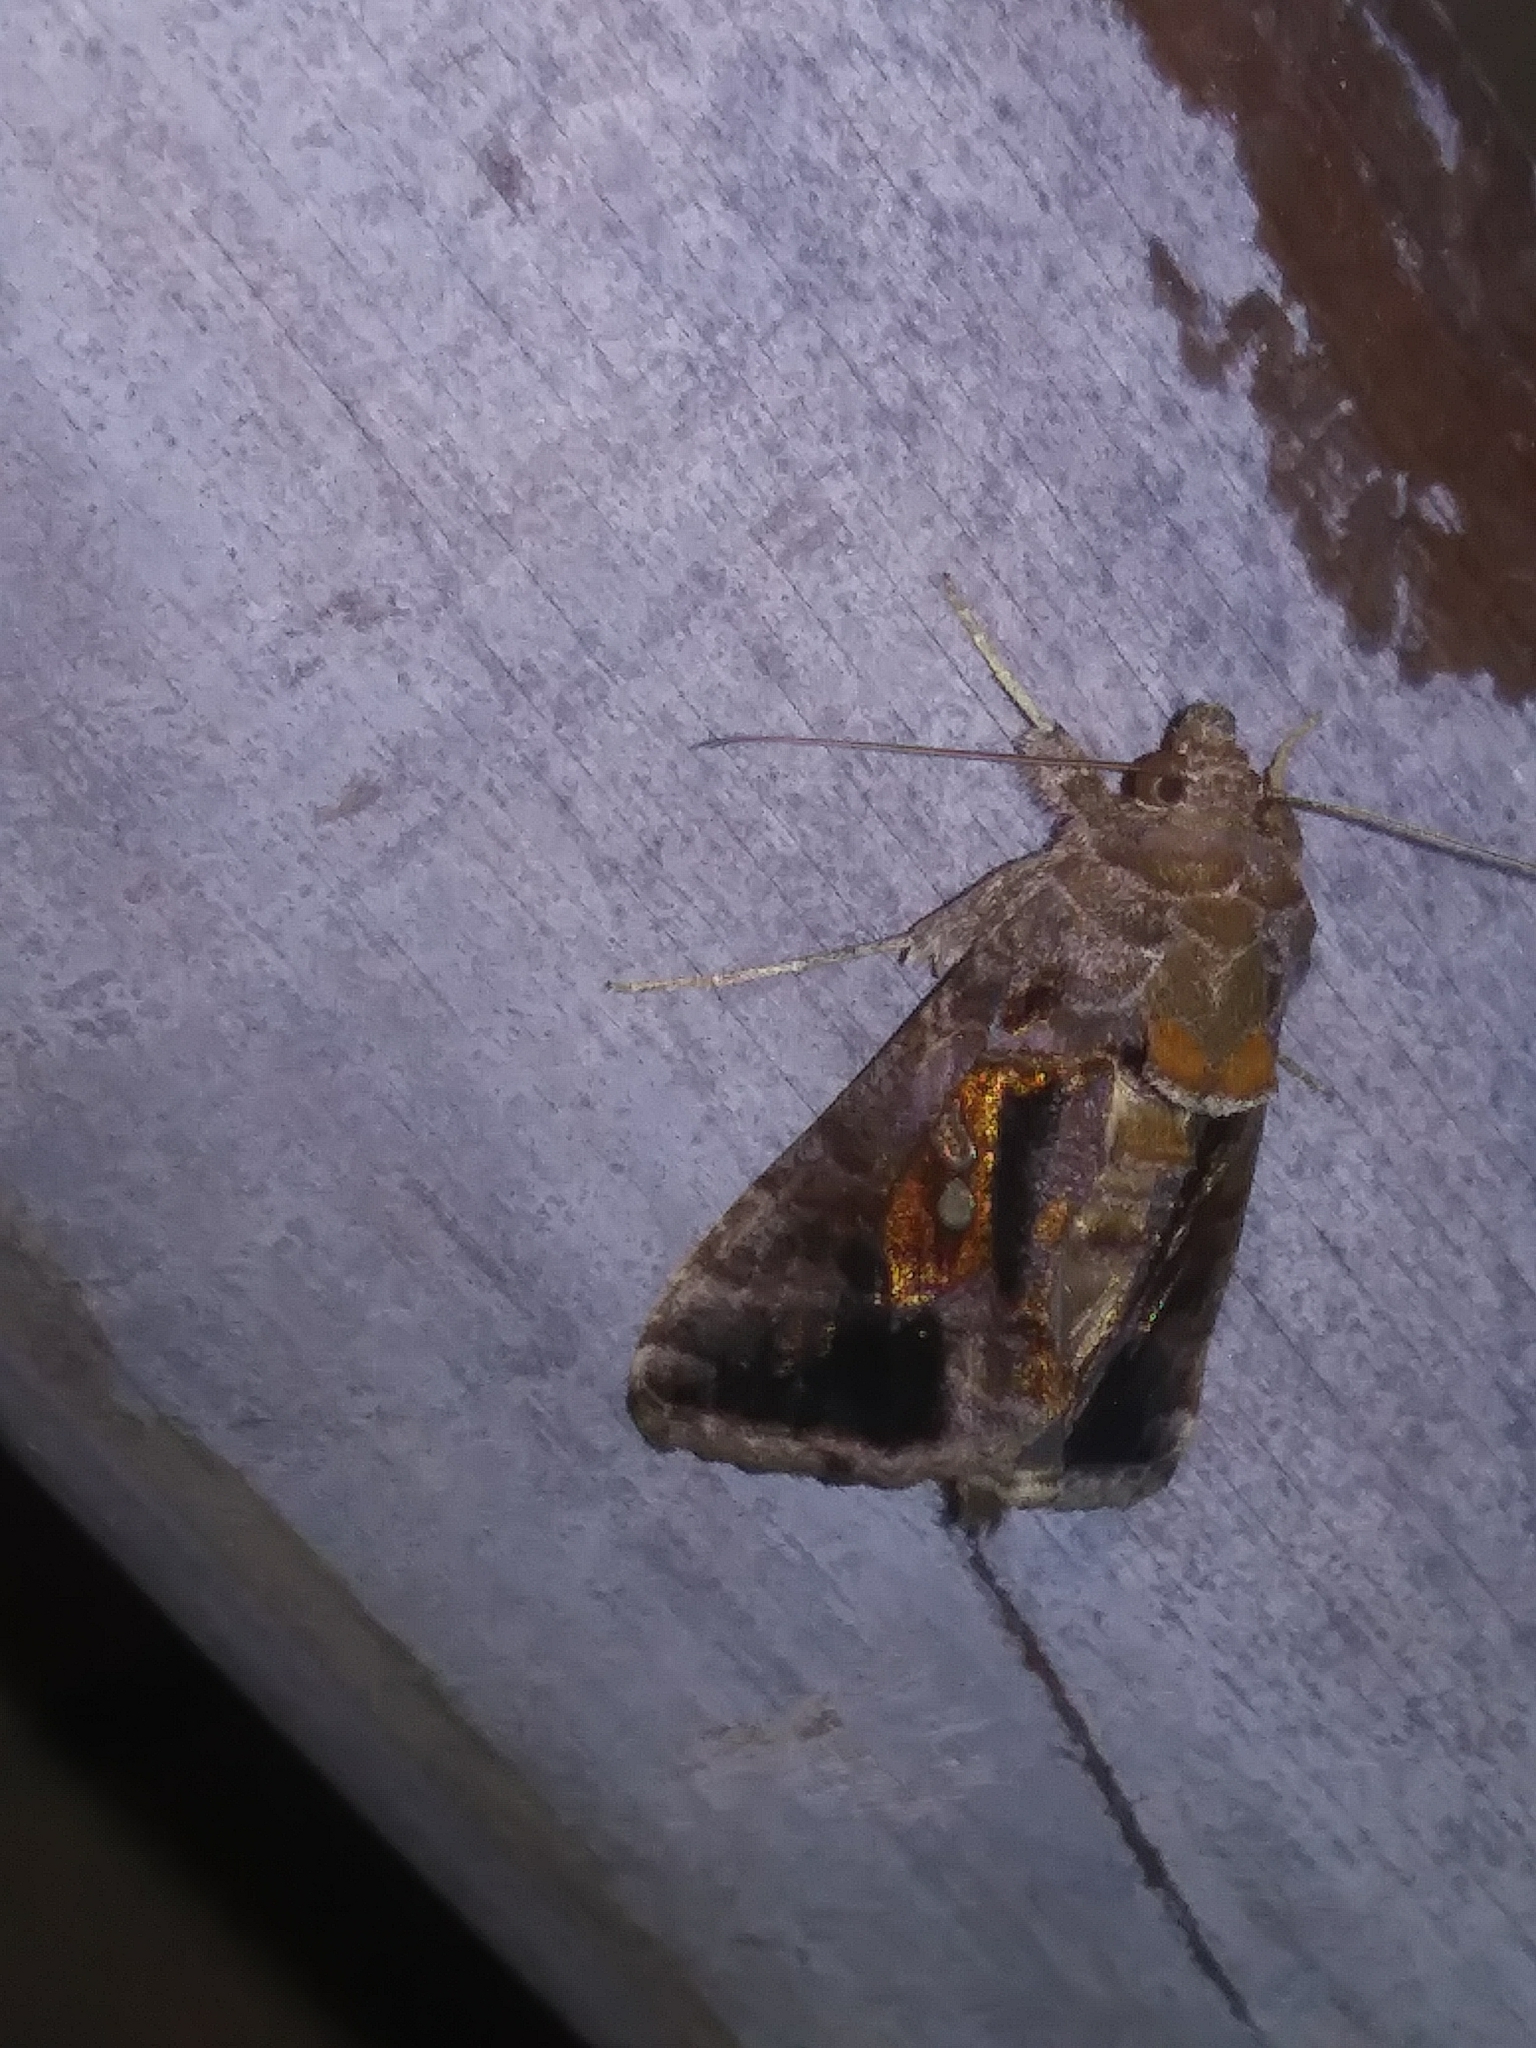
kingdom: Animalia
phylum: Arthropoda
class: Insecta
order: Lepidoptera
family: Noctuidae
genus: Chrysodeixis
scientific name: Chrysodeixis includens
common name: Cutworm moth
